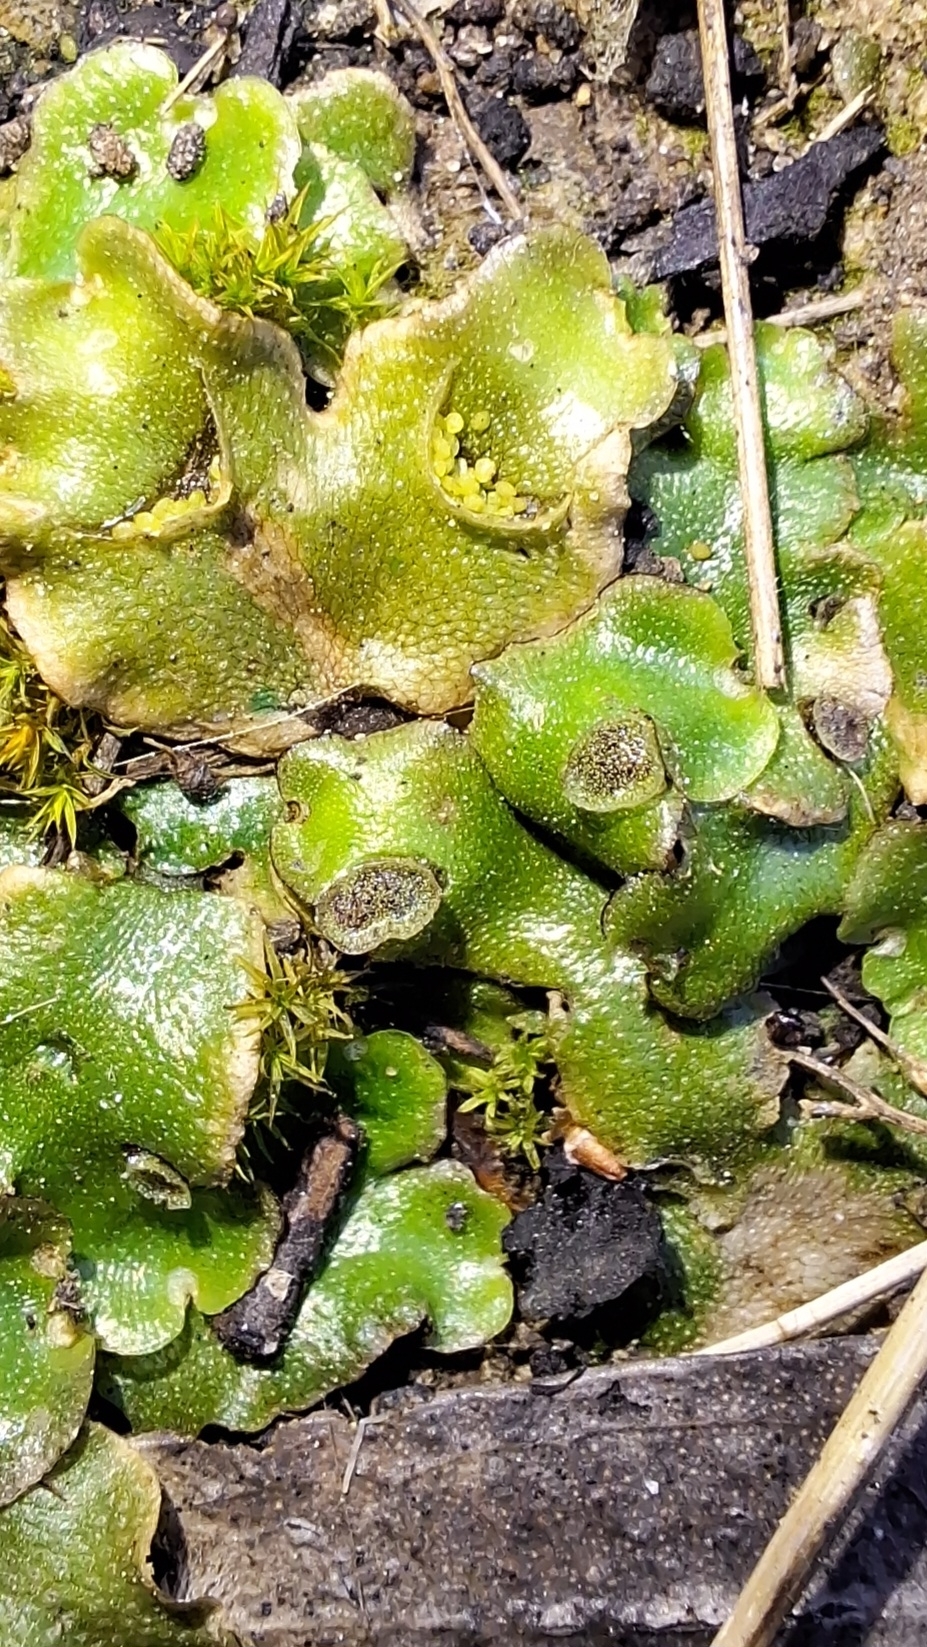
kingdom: Plantae
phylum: Marchantiophyta
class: Marchantiopsida
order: Lunulariales
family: Lunulariaceae
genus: Lunularia
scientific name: Lunularia cruciata
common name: Crescent-cup liverwort
